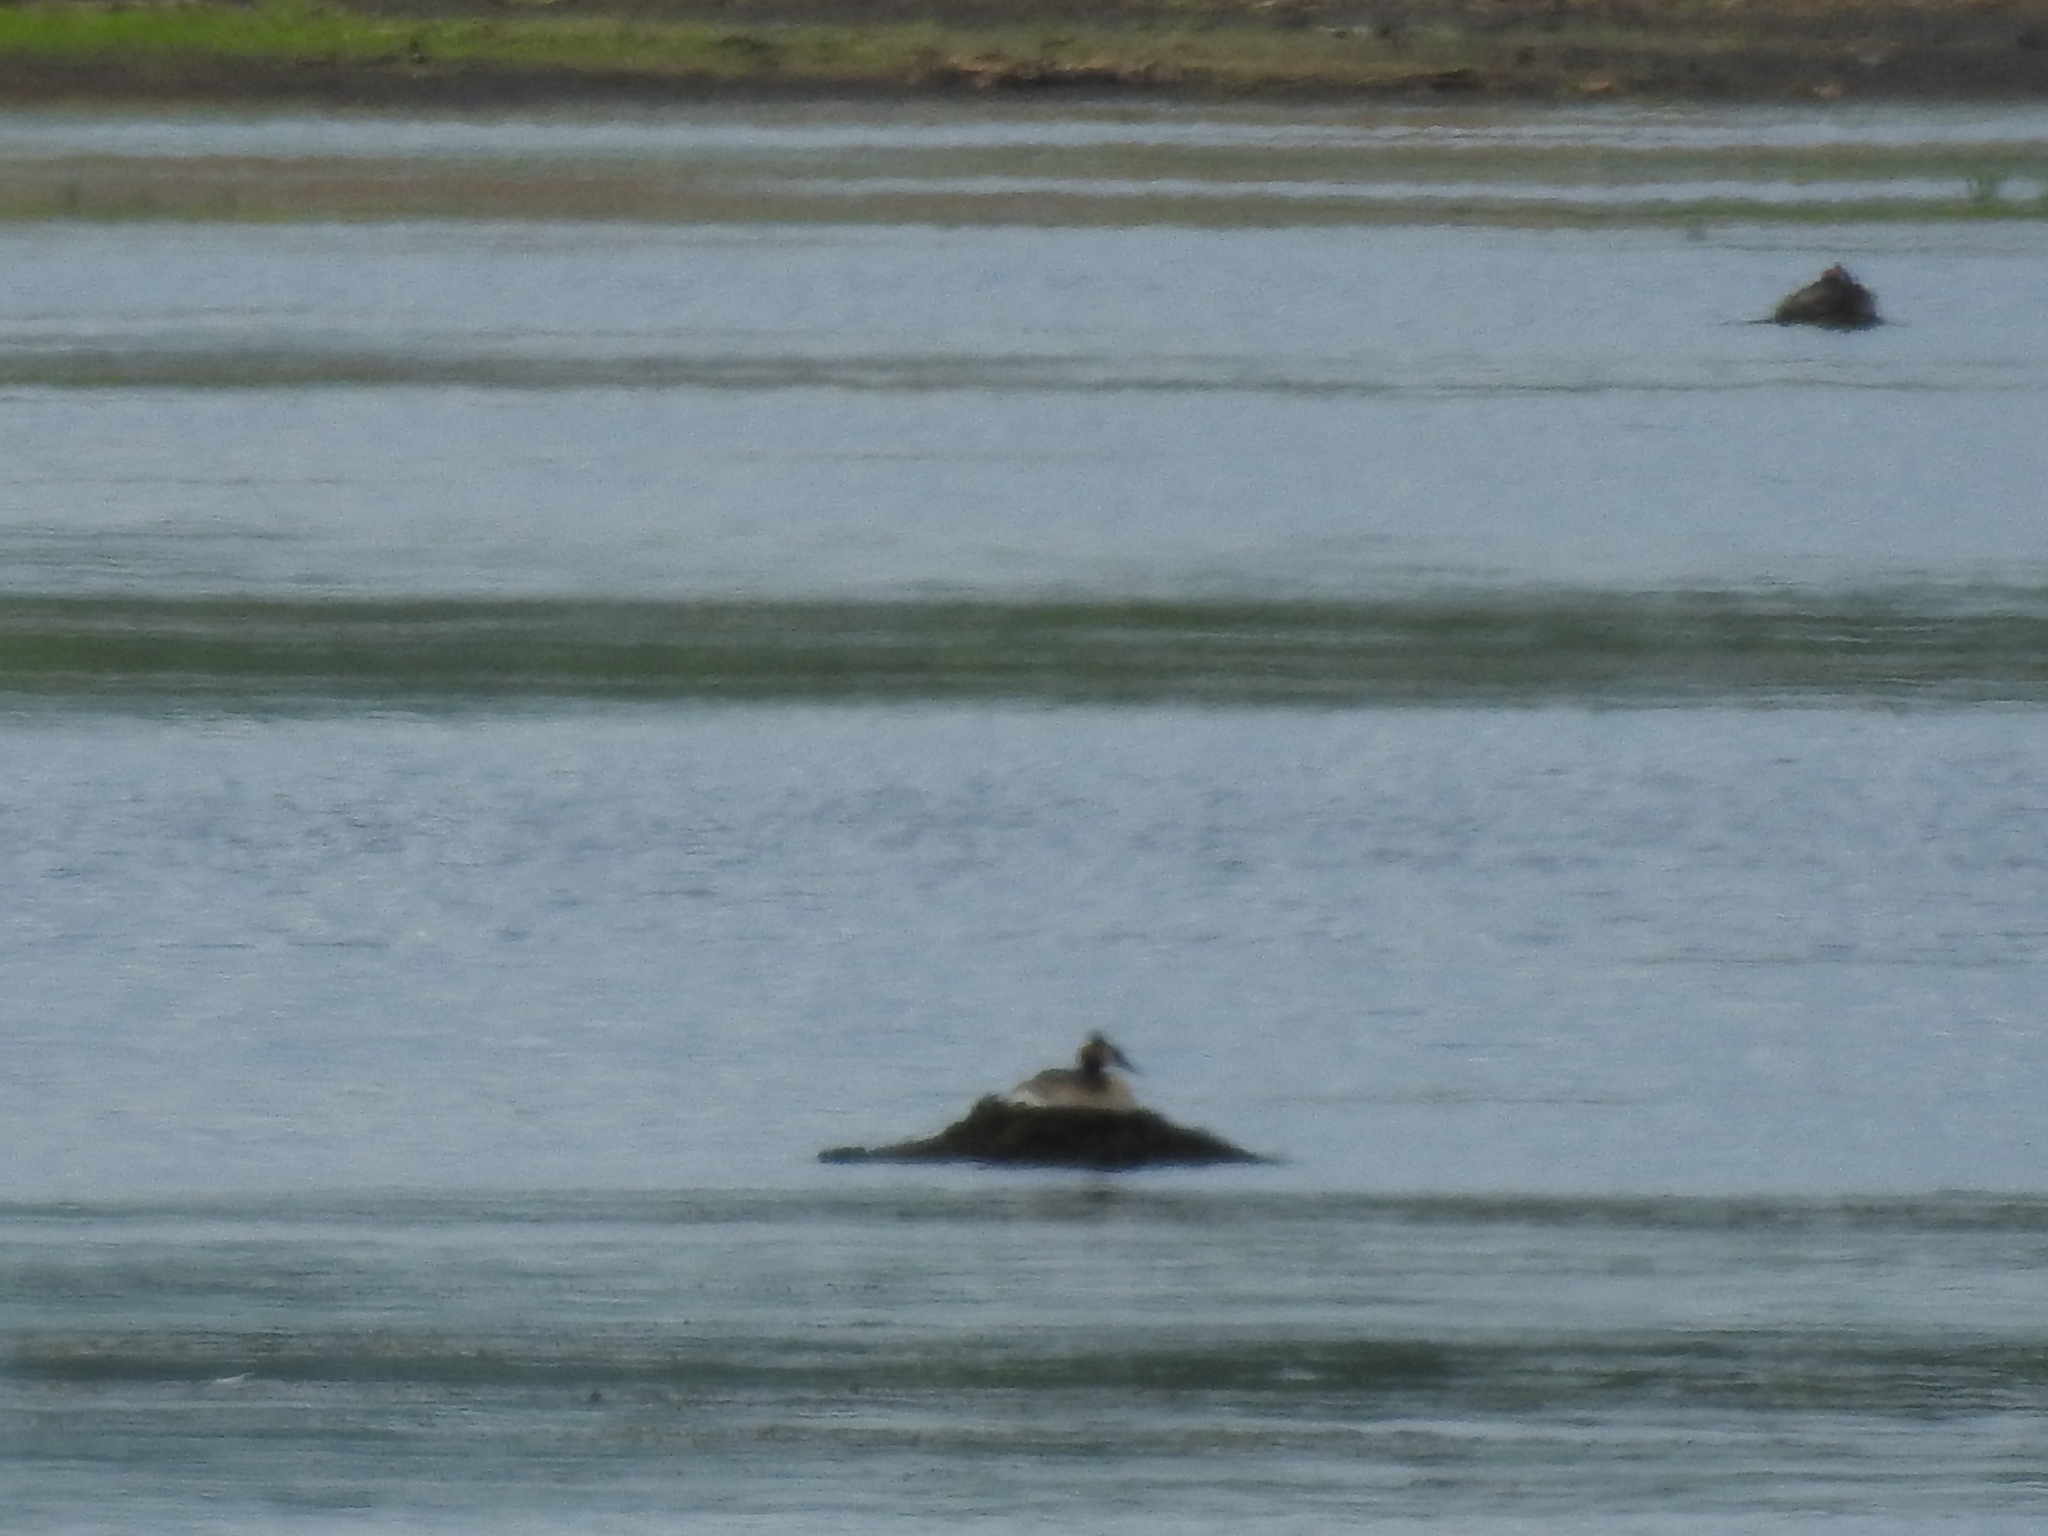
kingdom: Animalia
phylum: Chordata
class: Aves
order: Podicipediformes
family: Podicipedidae
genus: Podiceps
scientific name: Podiceps cristatus
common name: Great crested grebe
